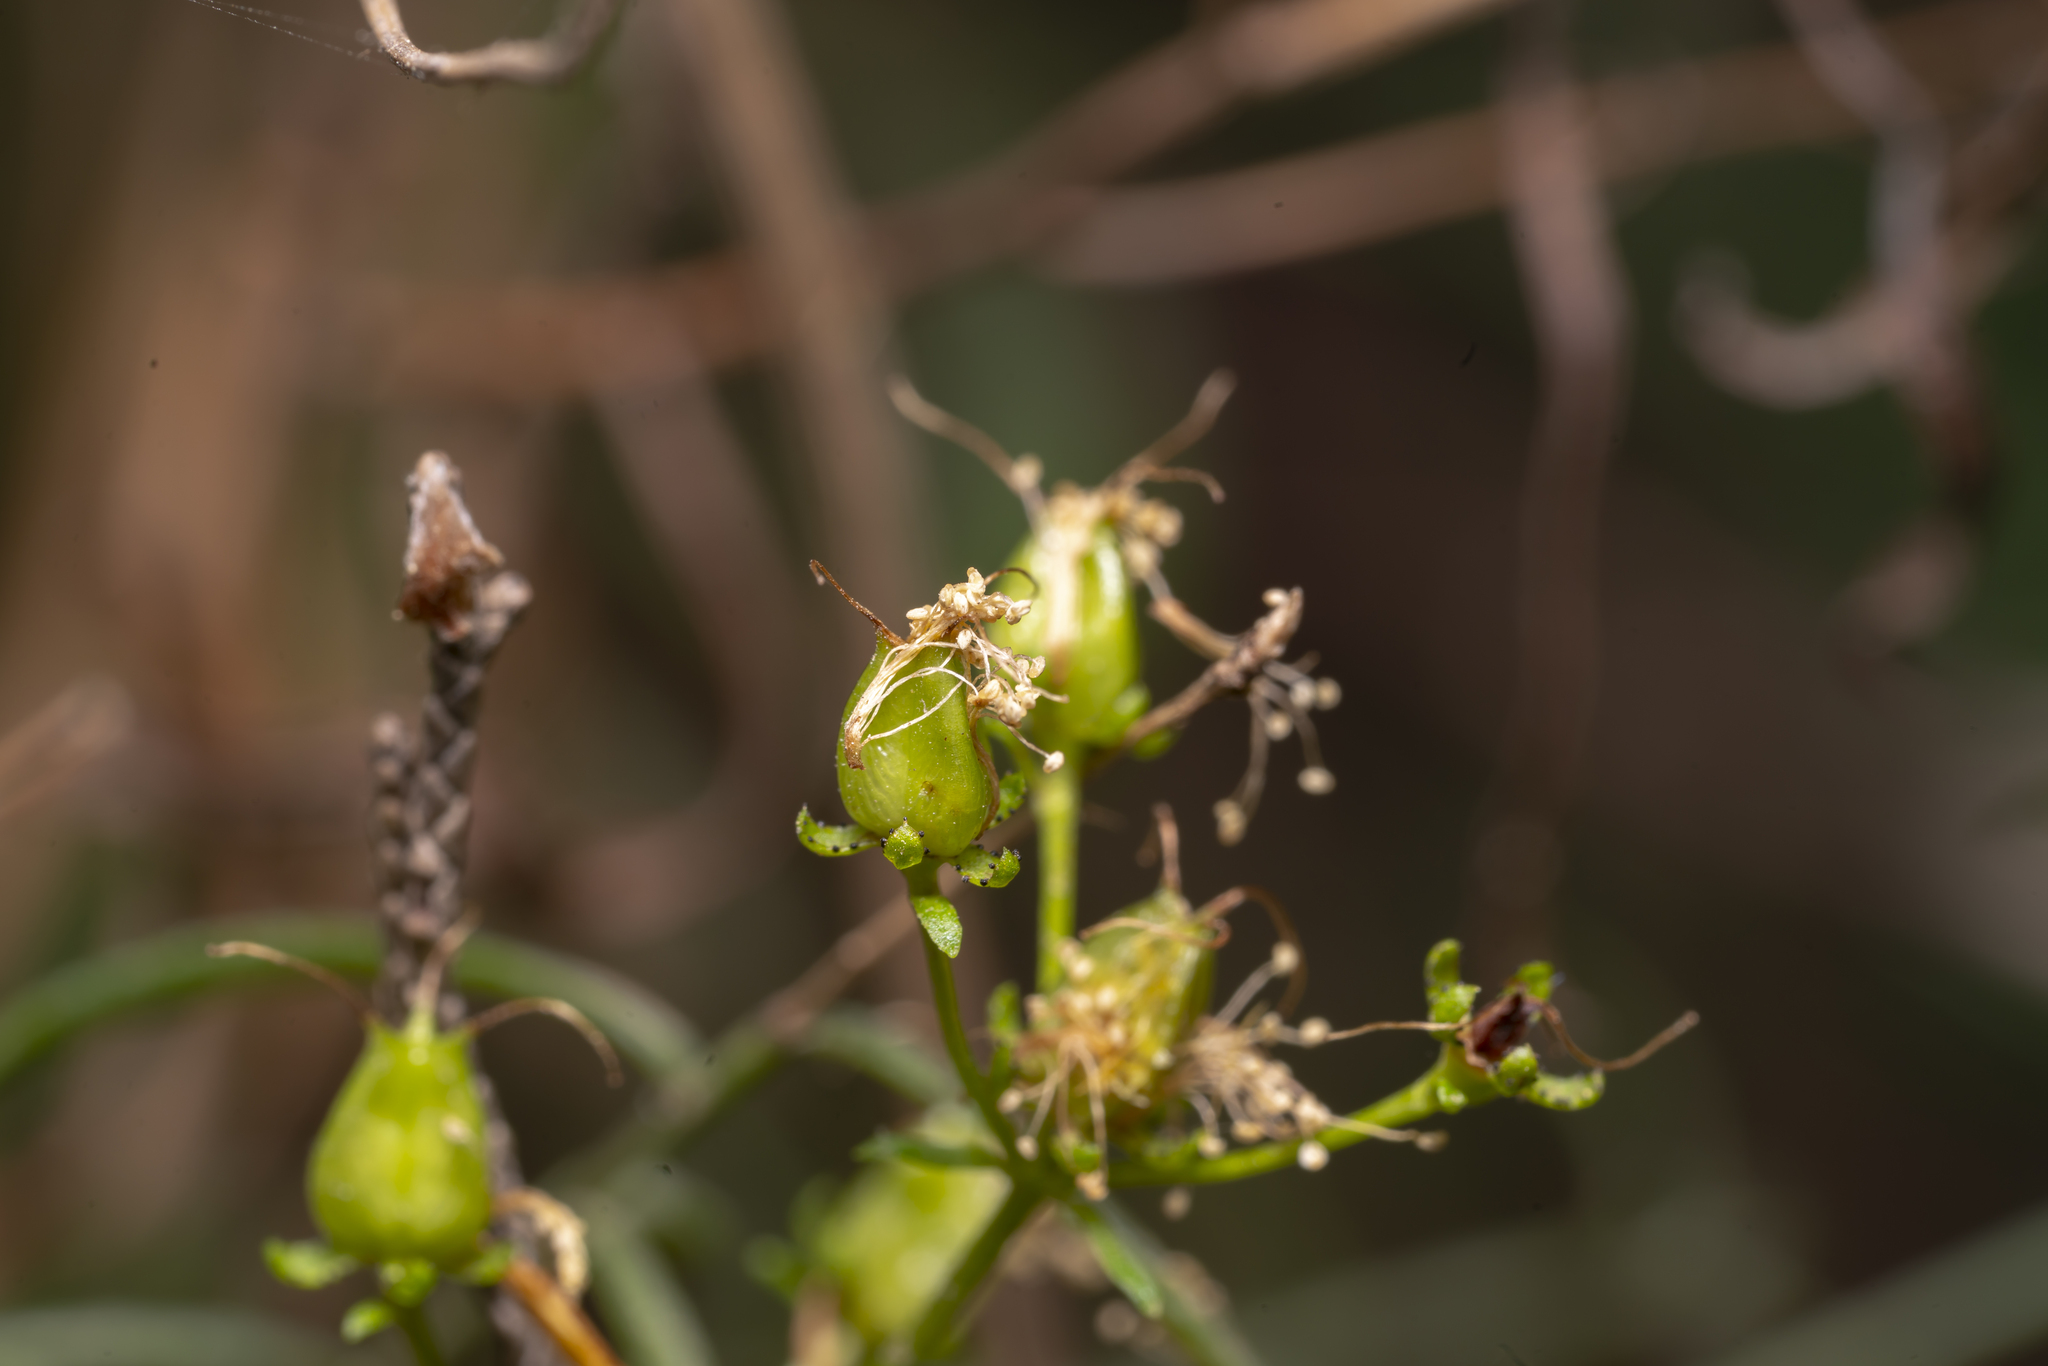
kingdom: Plantae
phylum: Tracheophyta
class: Magnoliopsida
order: Malpighiales
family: Hypericaceae
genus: Hypericum
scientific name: Hypericum empetrifolium
